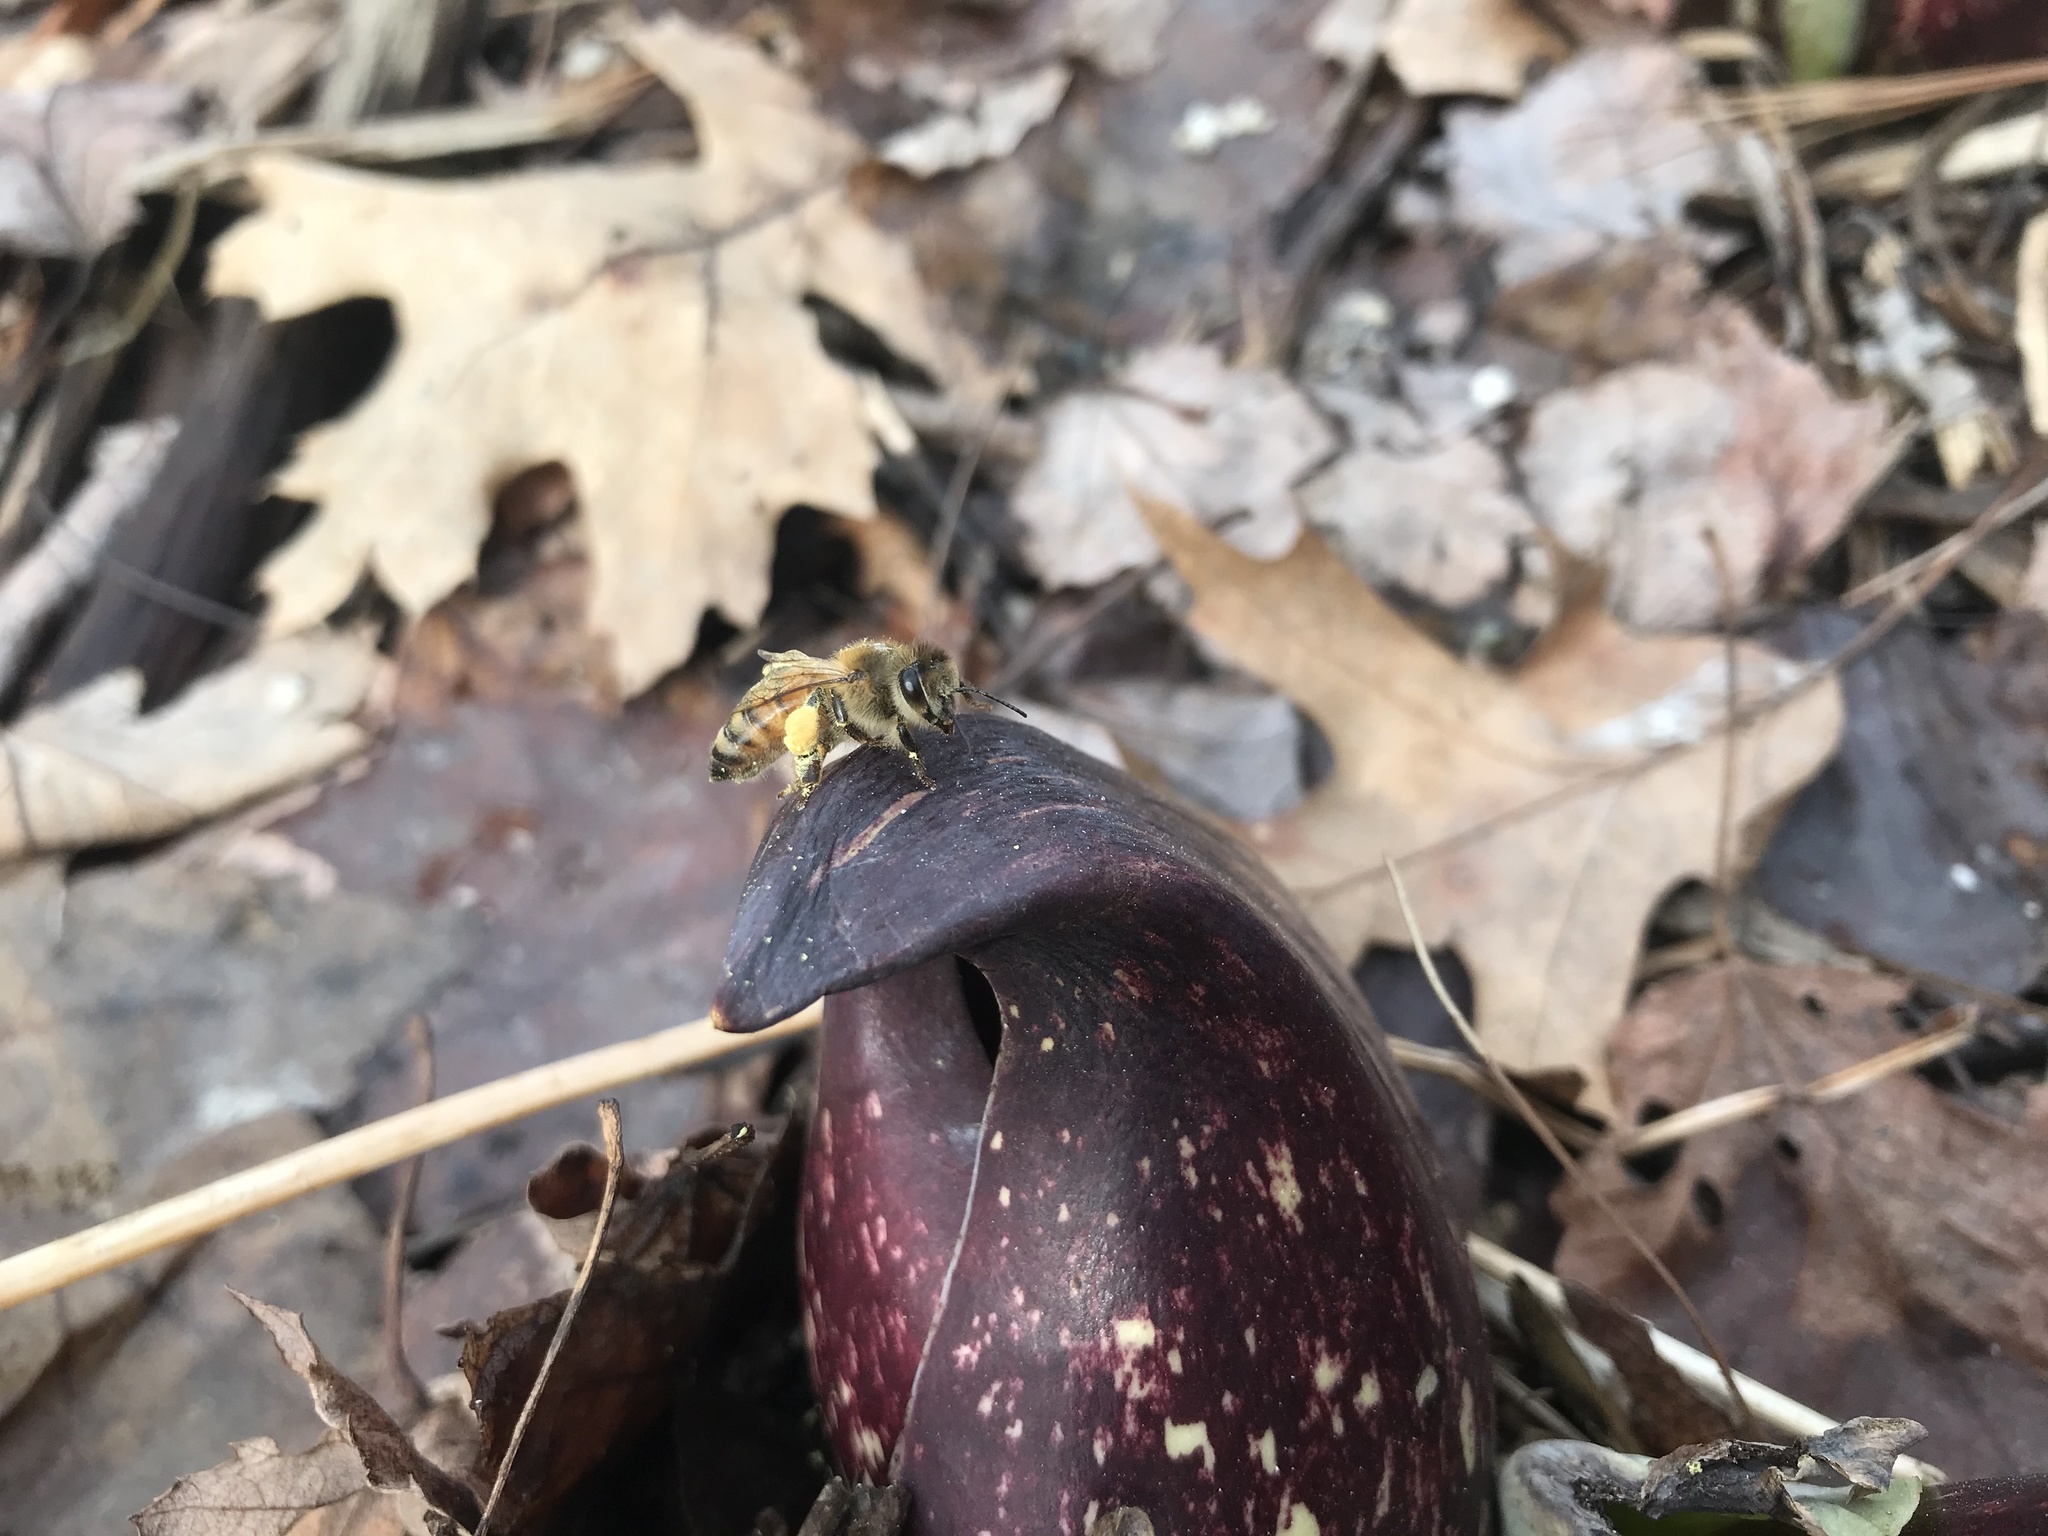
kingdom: Animalia
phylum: Arthropoda
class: Insecta
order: Hymenoptera
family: Apidae
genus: Apis
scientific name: Apis mellifera
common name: Honey bee
